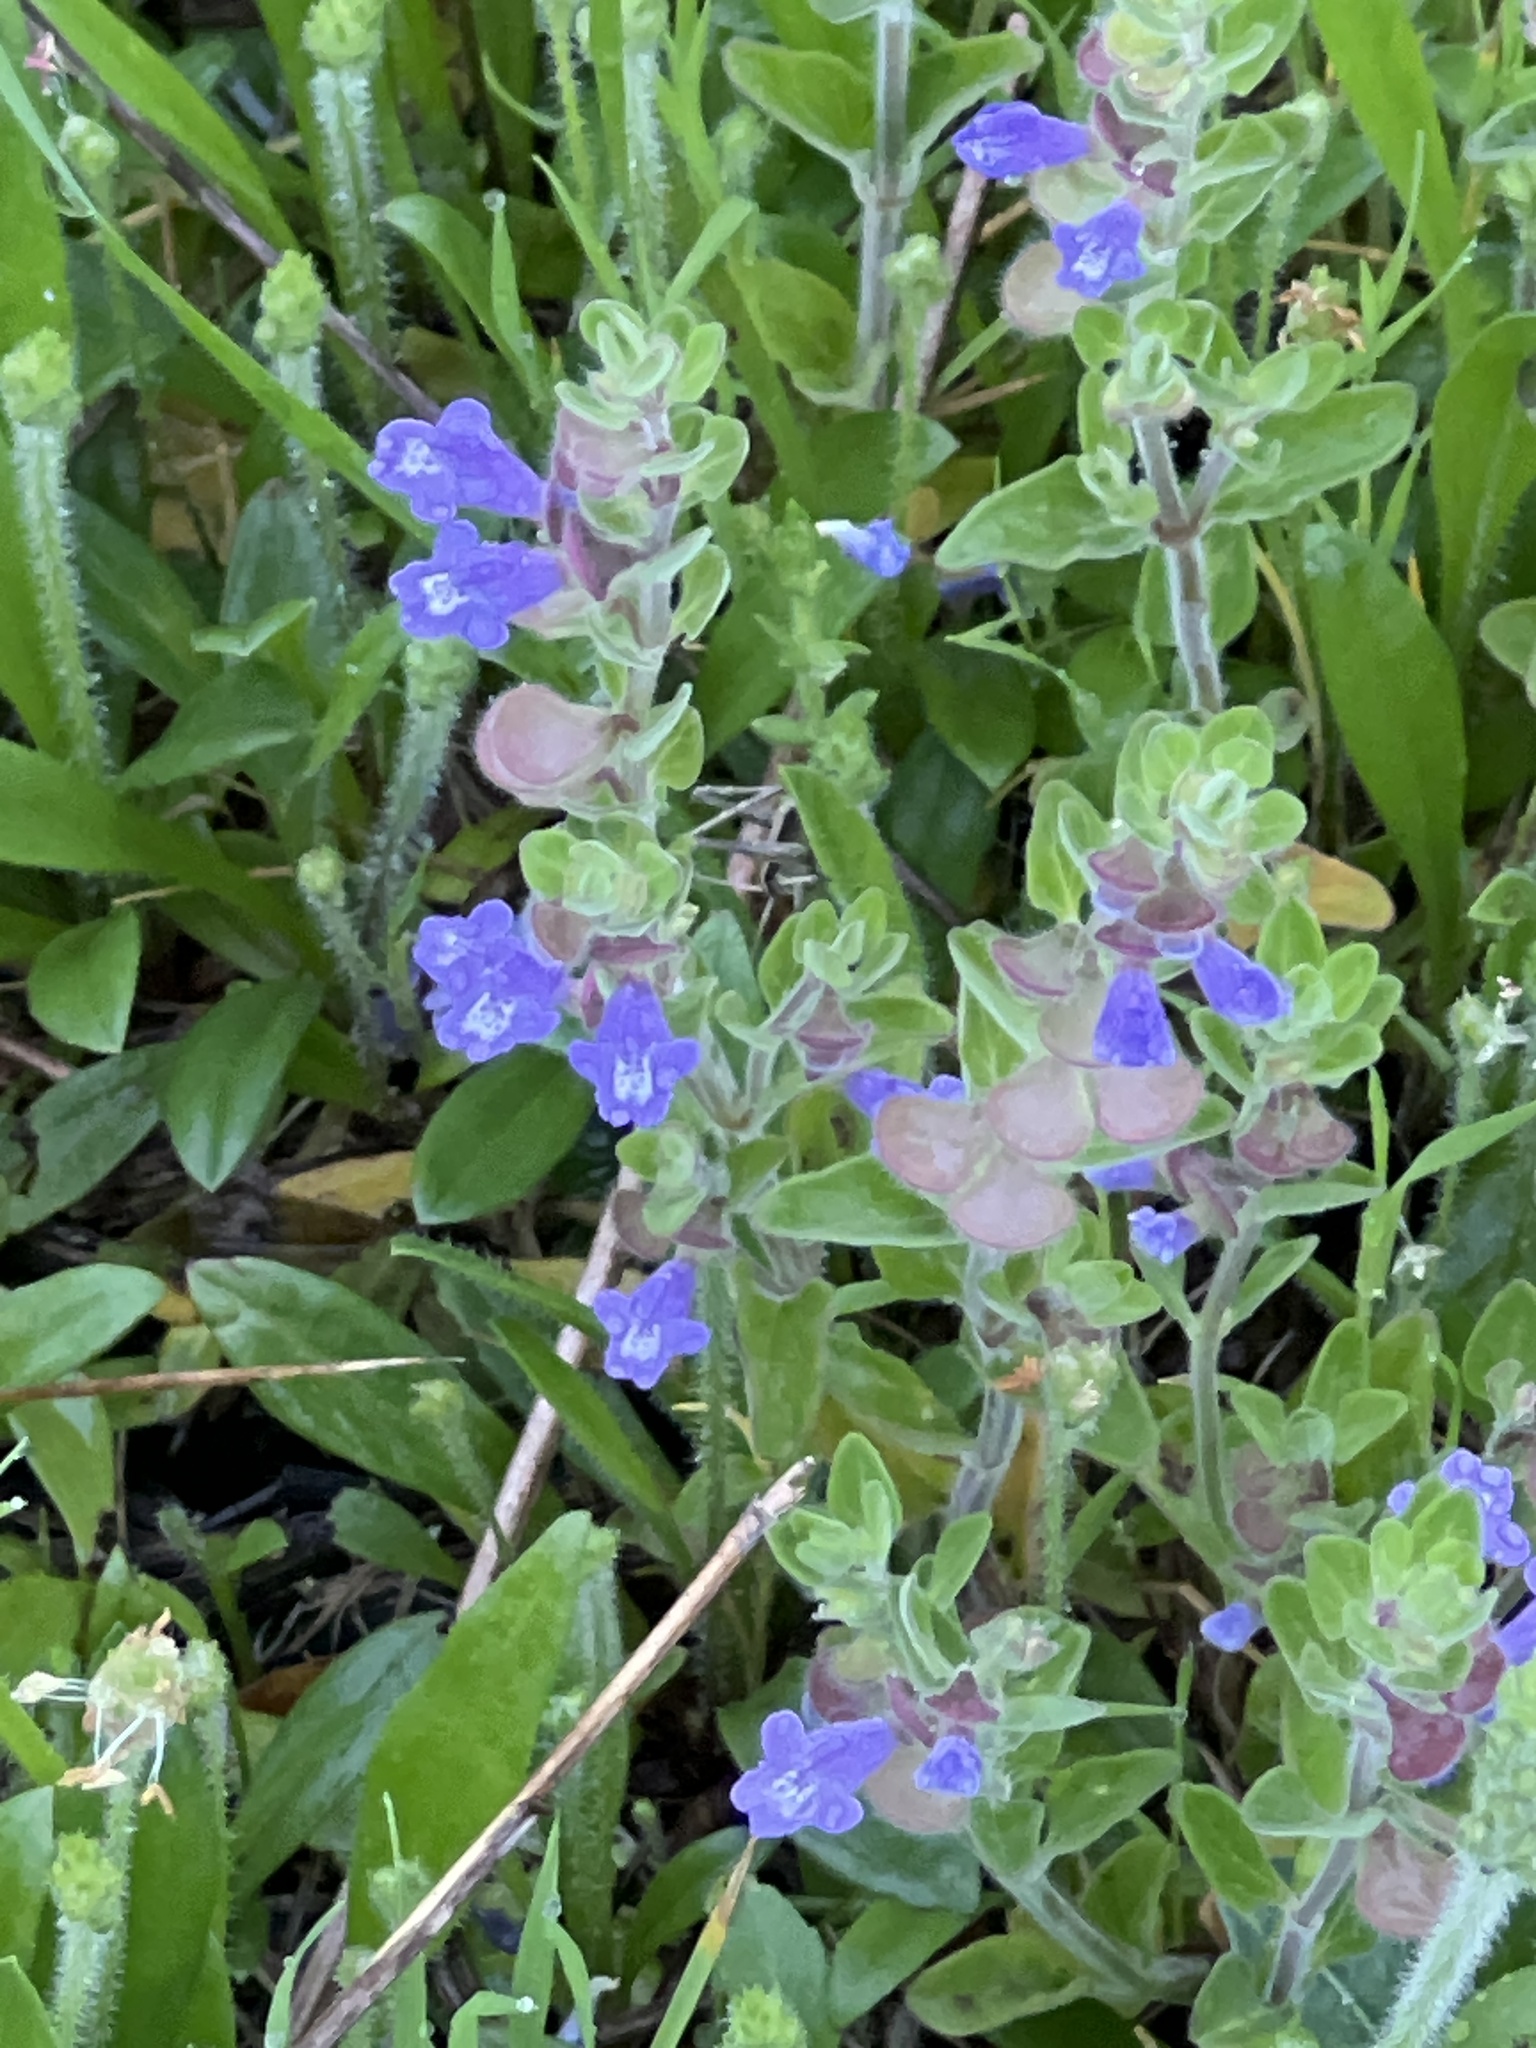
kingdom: Plantae
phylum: Tracheophyta
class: Magnoliopsida
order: Lamiales
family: Lamiaceae
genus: Scutellaria
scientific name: Scutellaria drummondii
